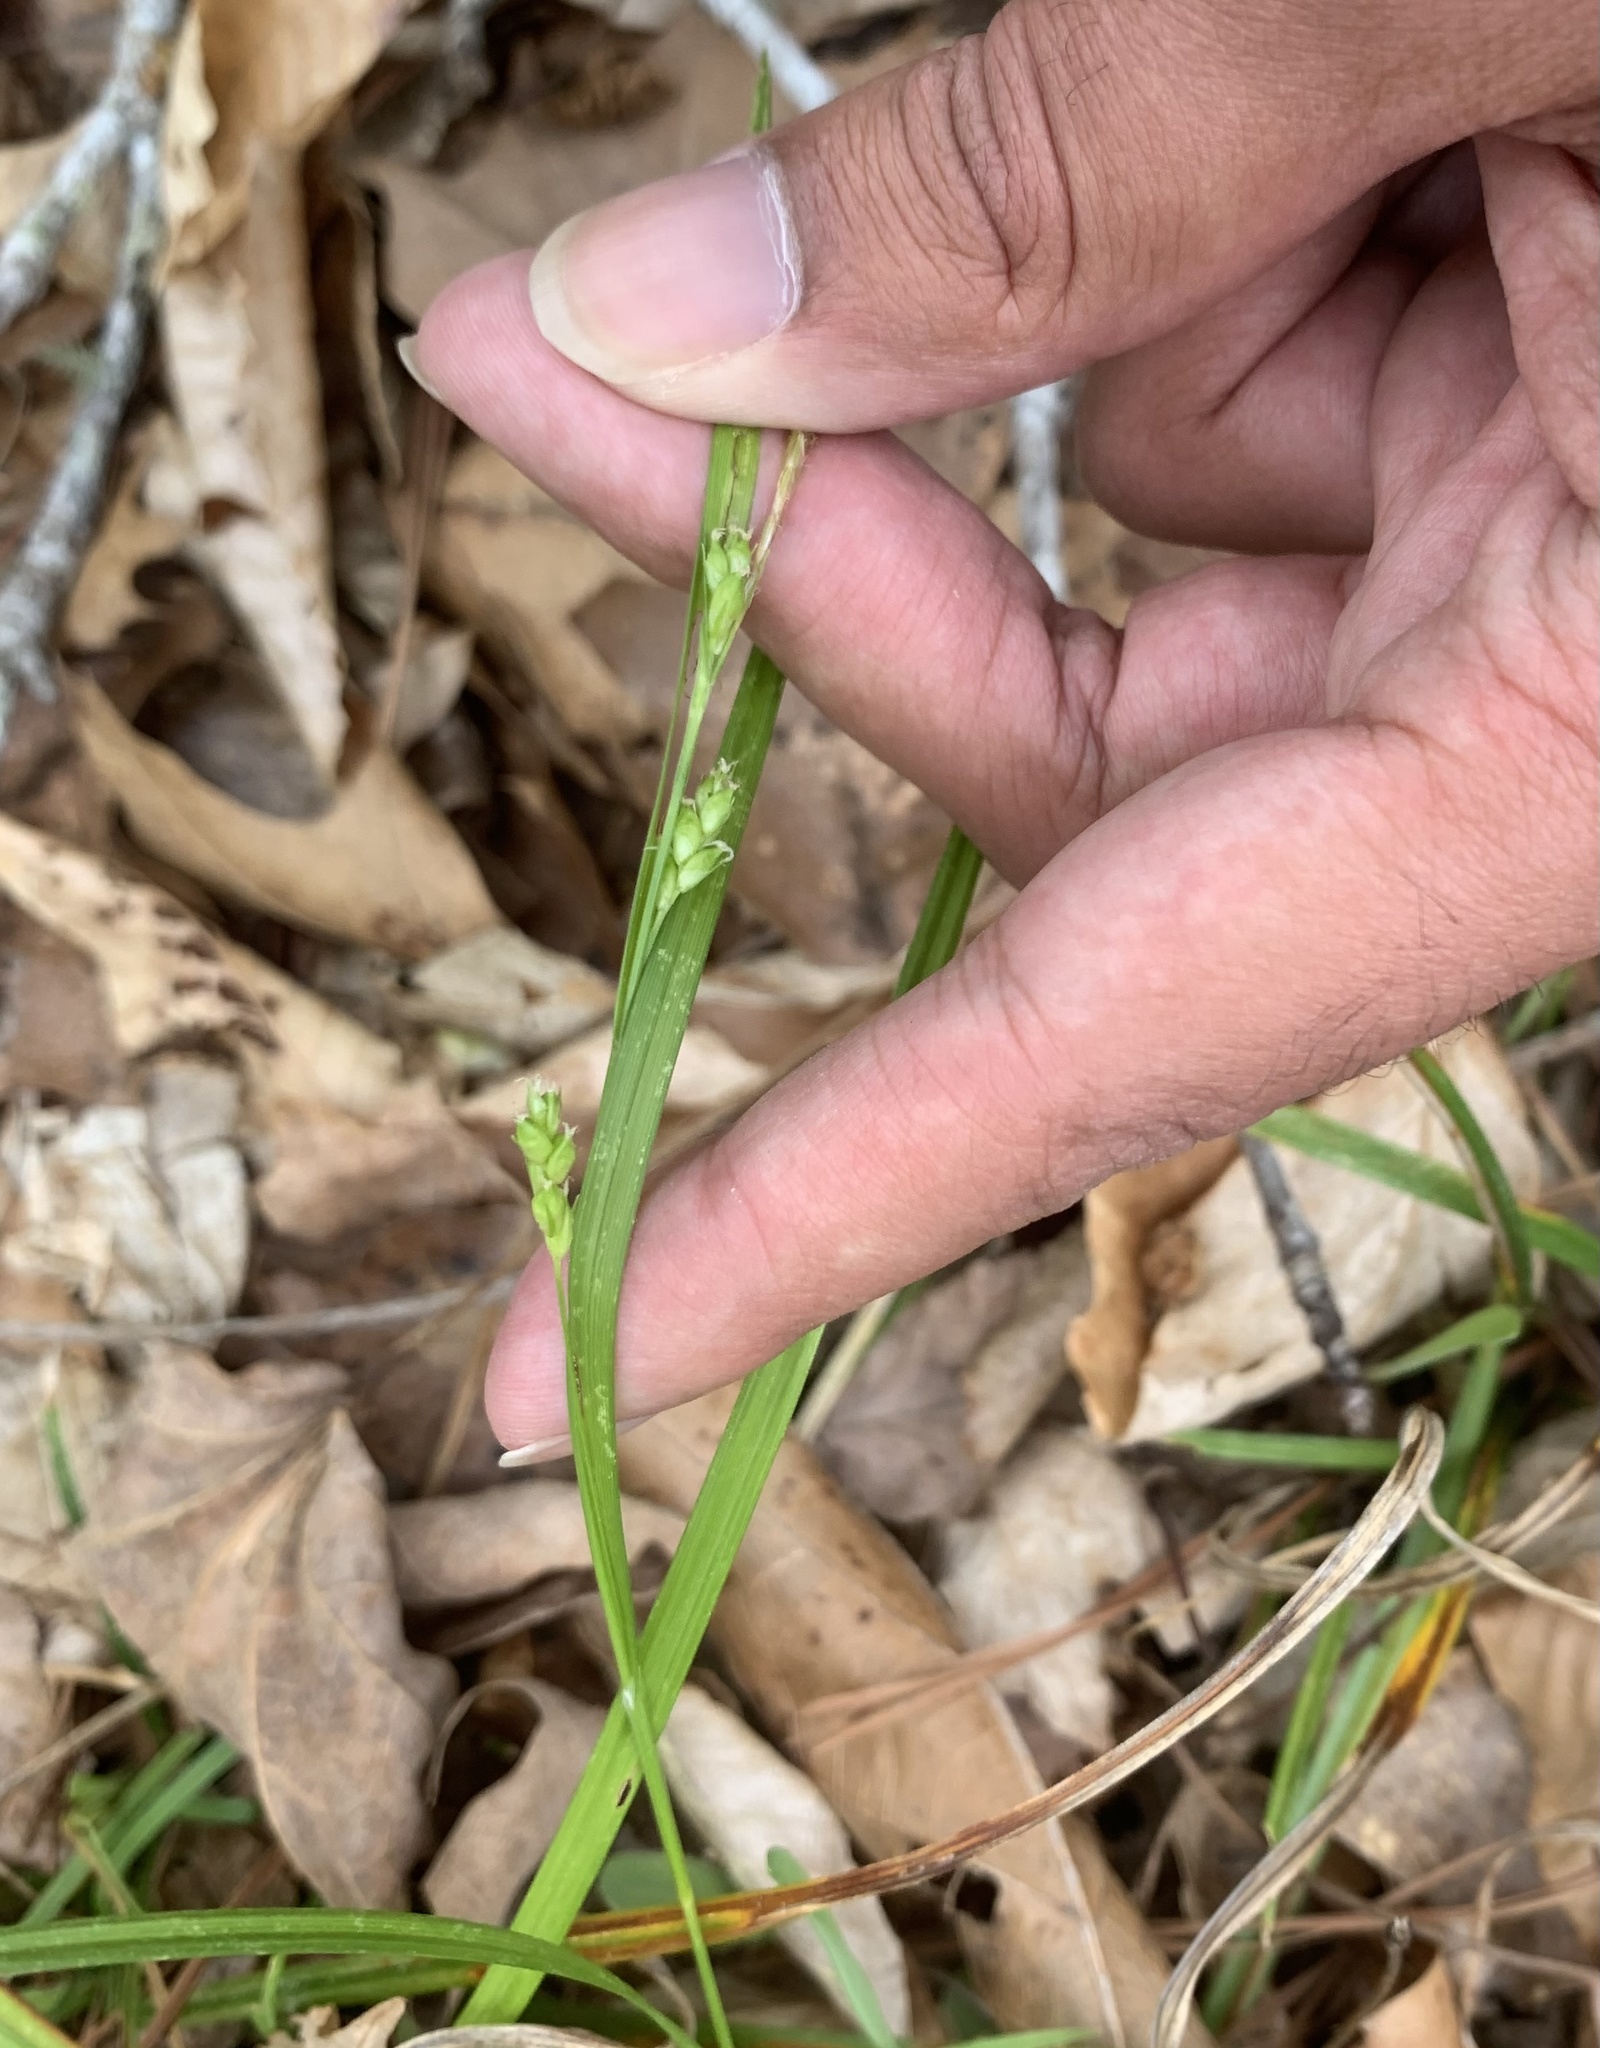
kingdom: Plantae
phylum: Tracheophyta
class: Liliopsida
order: Poales
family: Cyperaceae
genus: Carex
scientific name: Carex amphibola
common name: Amphibious sedge
